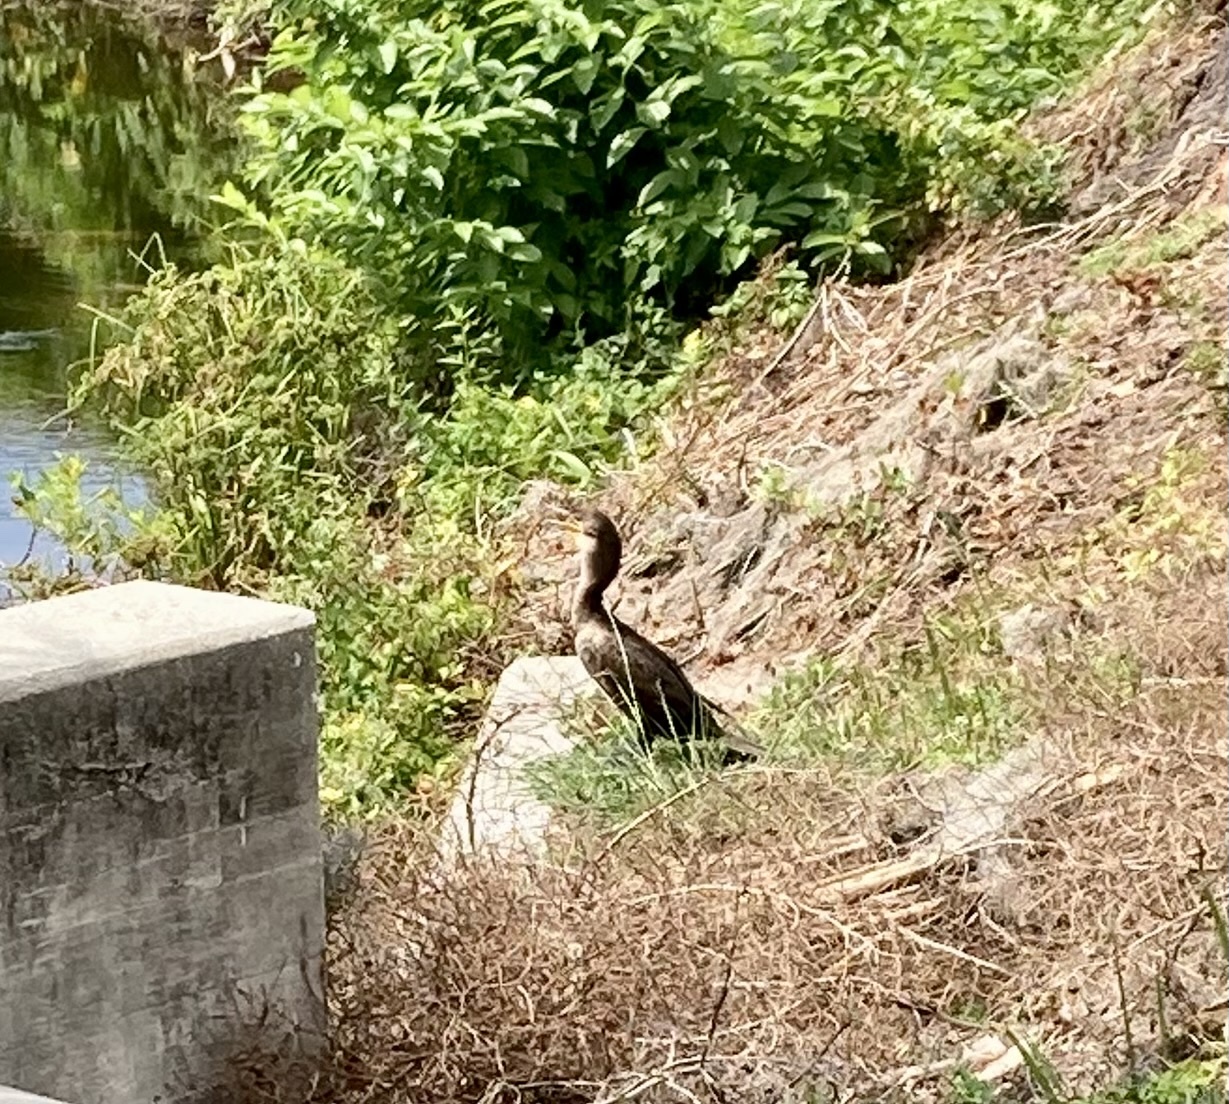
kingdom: Animalia
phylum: Chordata
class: Aves
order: Suliformes
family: Phalacrocoracidae
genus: Phalacrocorax
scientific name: Phalacrocorax auritus
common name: Double-crested cormorant
